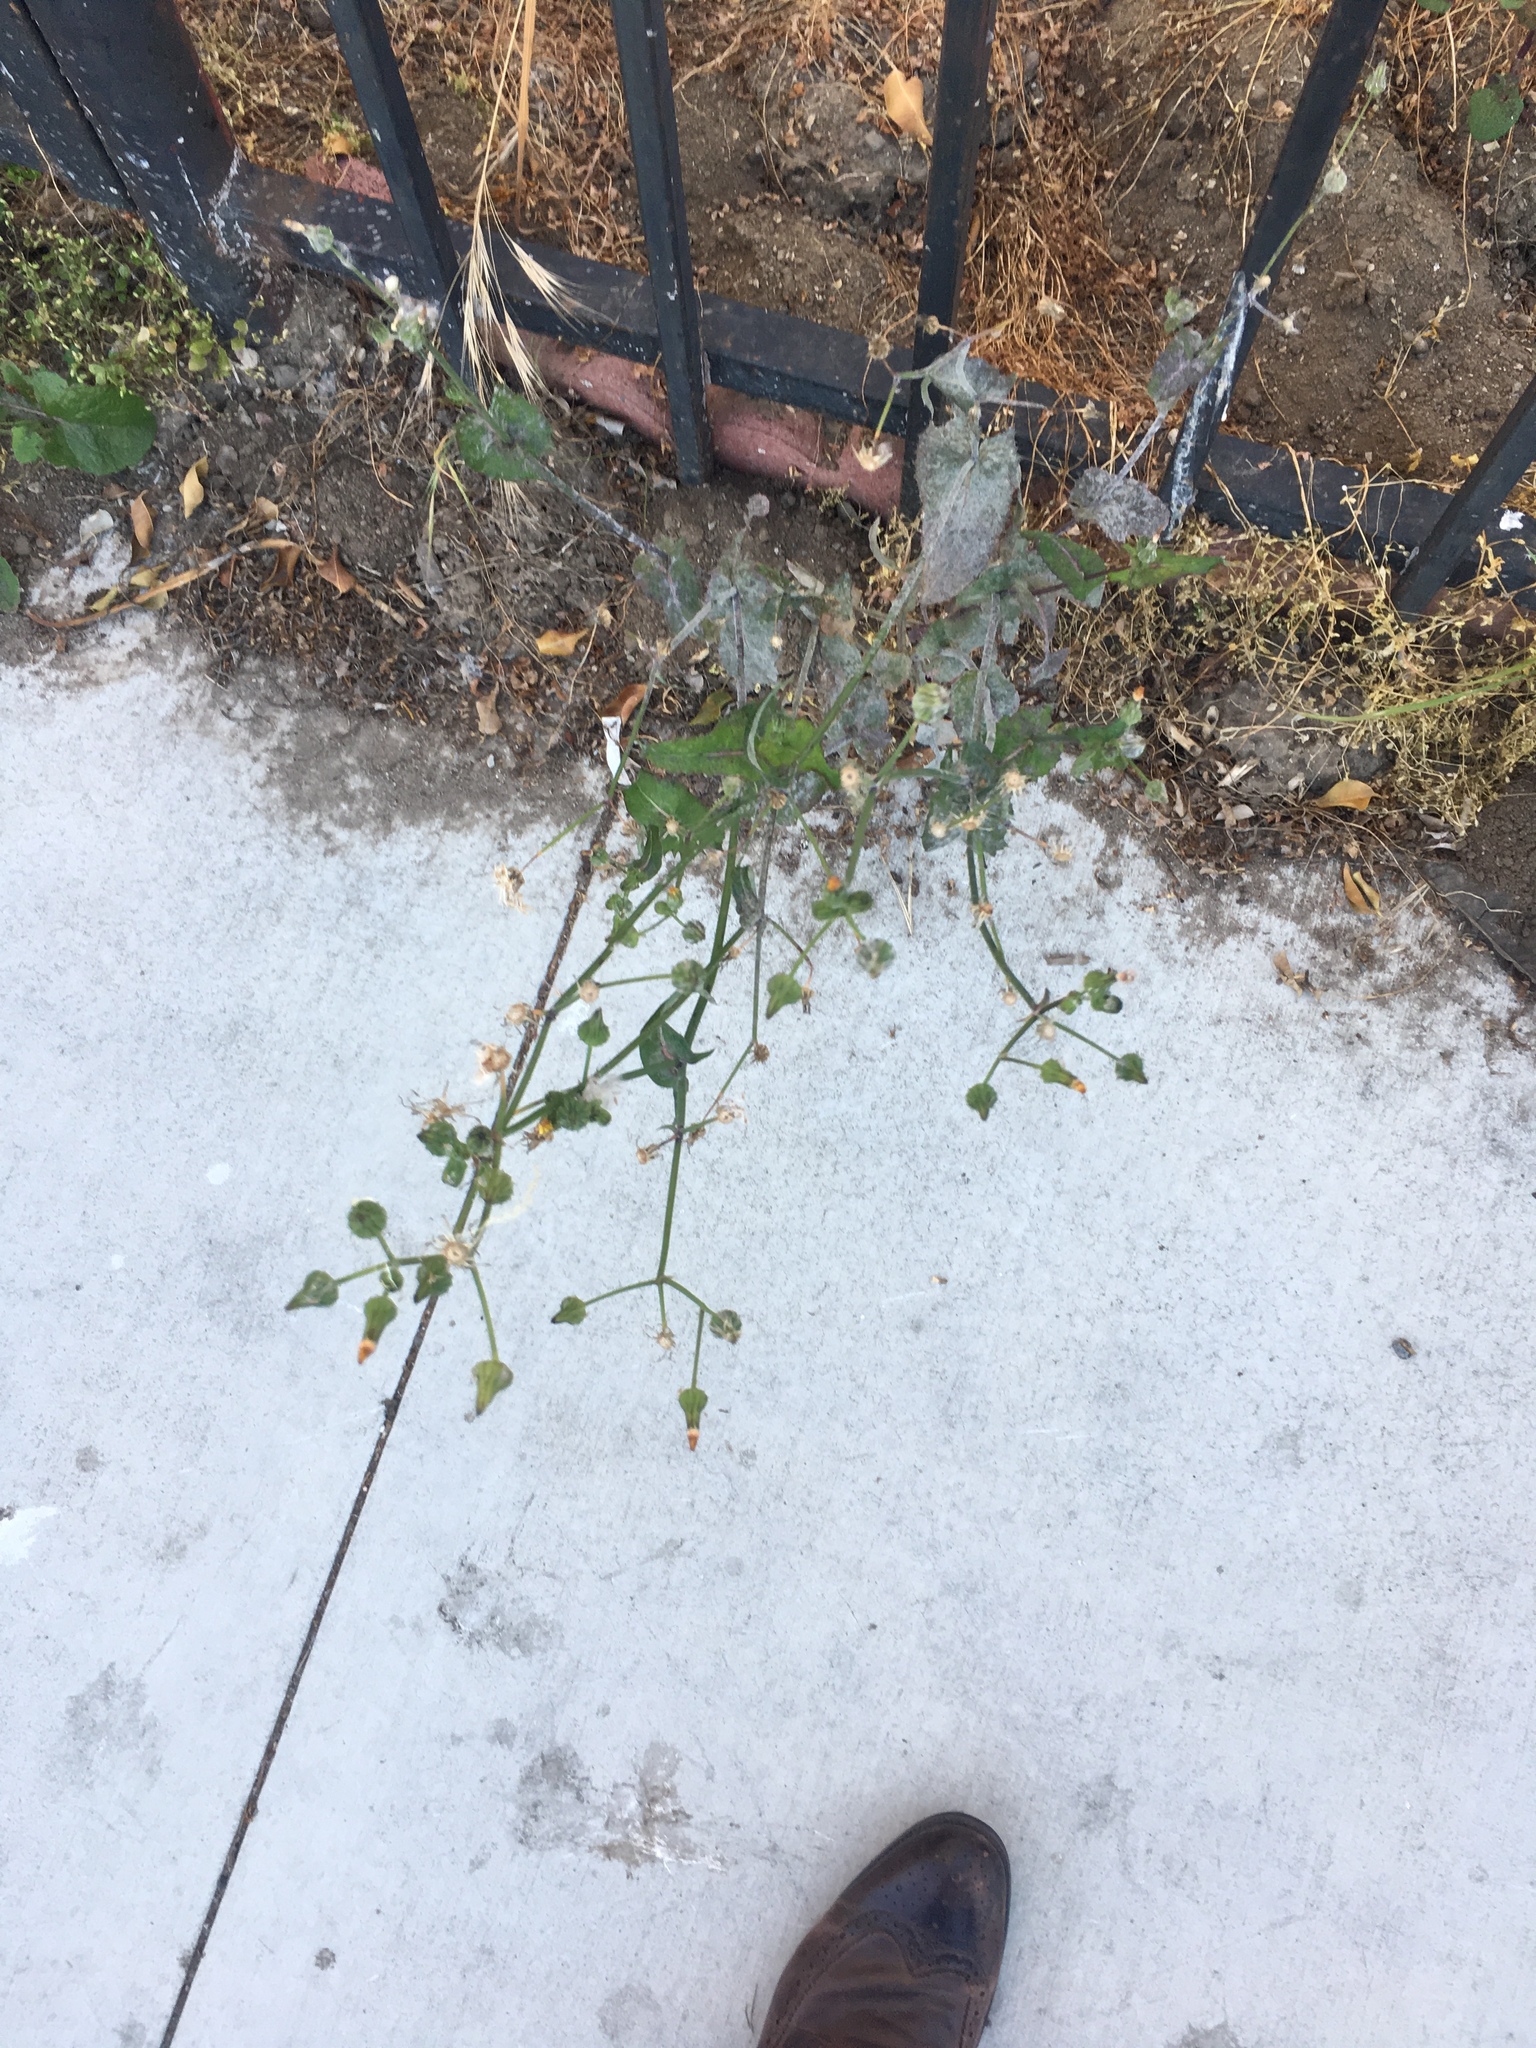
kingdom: Plantae
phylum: Tracheophyta
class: Magnoliopsida
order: Asterales
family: Asteraceae
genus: Sonchus
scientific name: Sonchus oleraceus
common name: Common sowthistle
